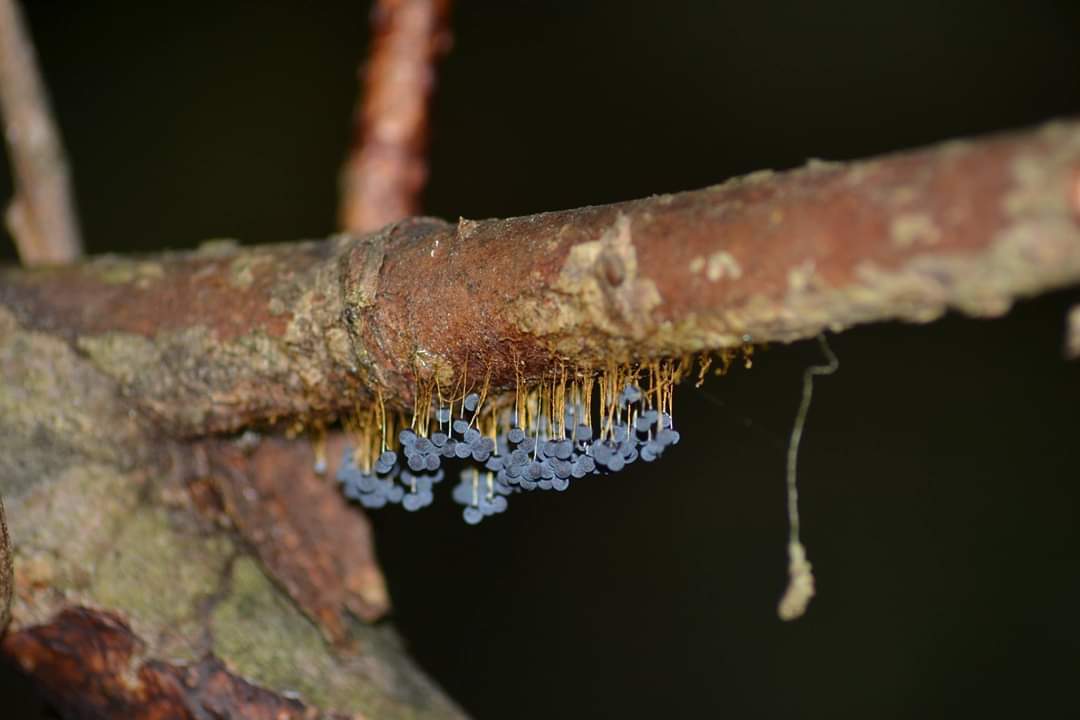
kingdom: Protozoa
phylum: Mycetozoa
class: Myxomycetes
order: Physarales
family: Physaraceae
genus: Badhamia
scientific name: Badhamia utricularis
